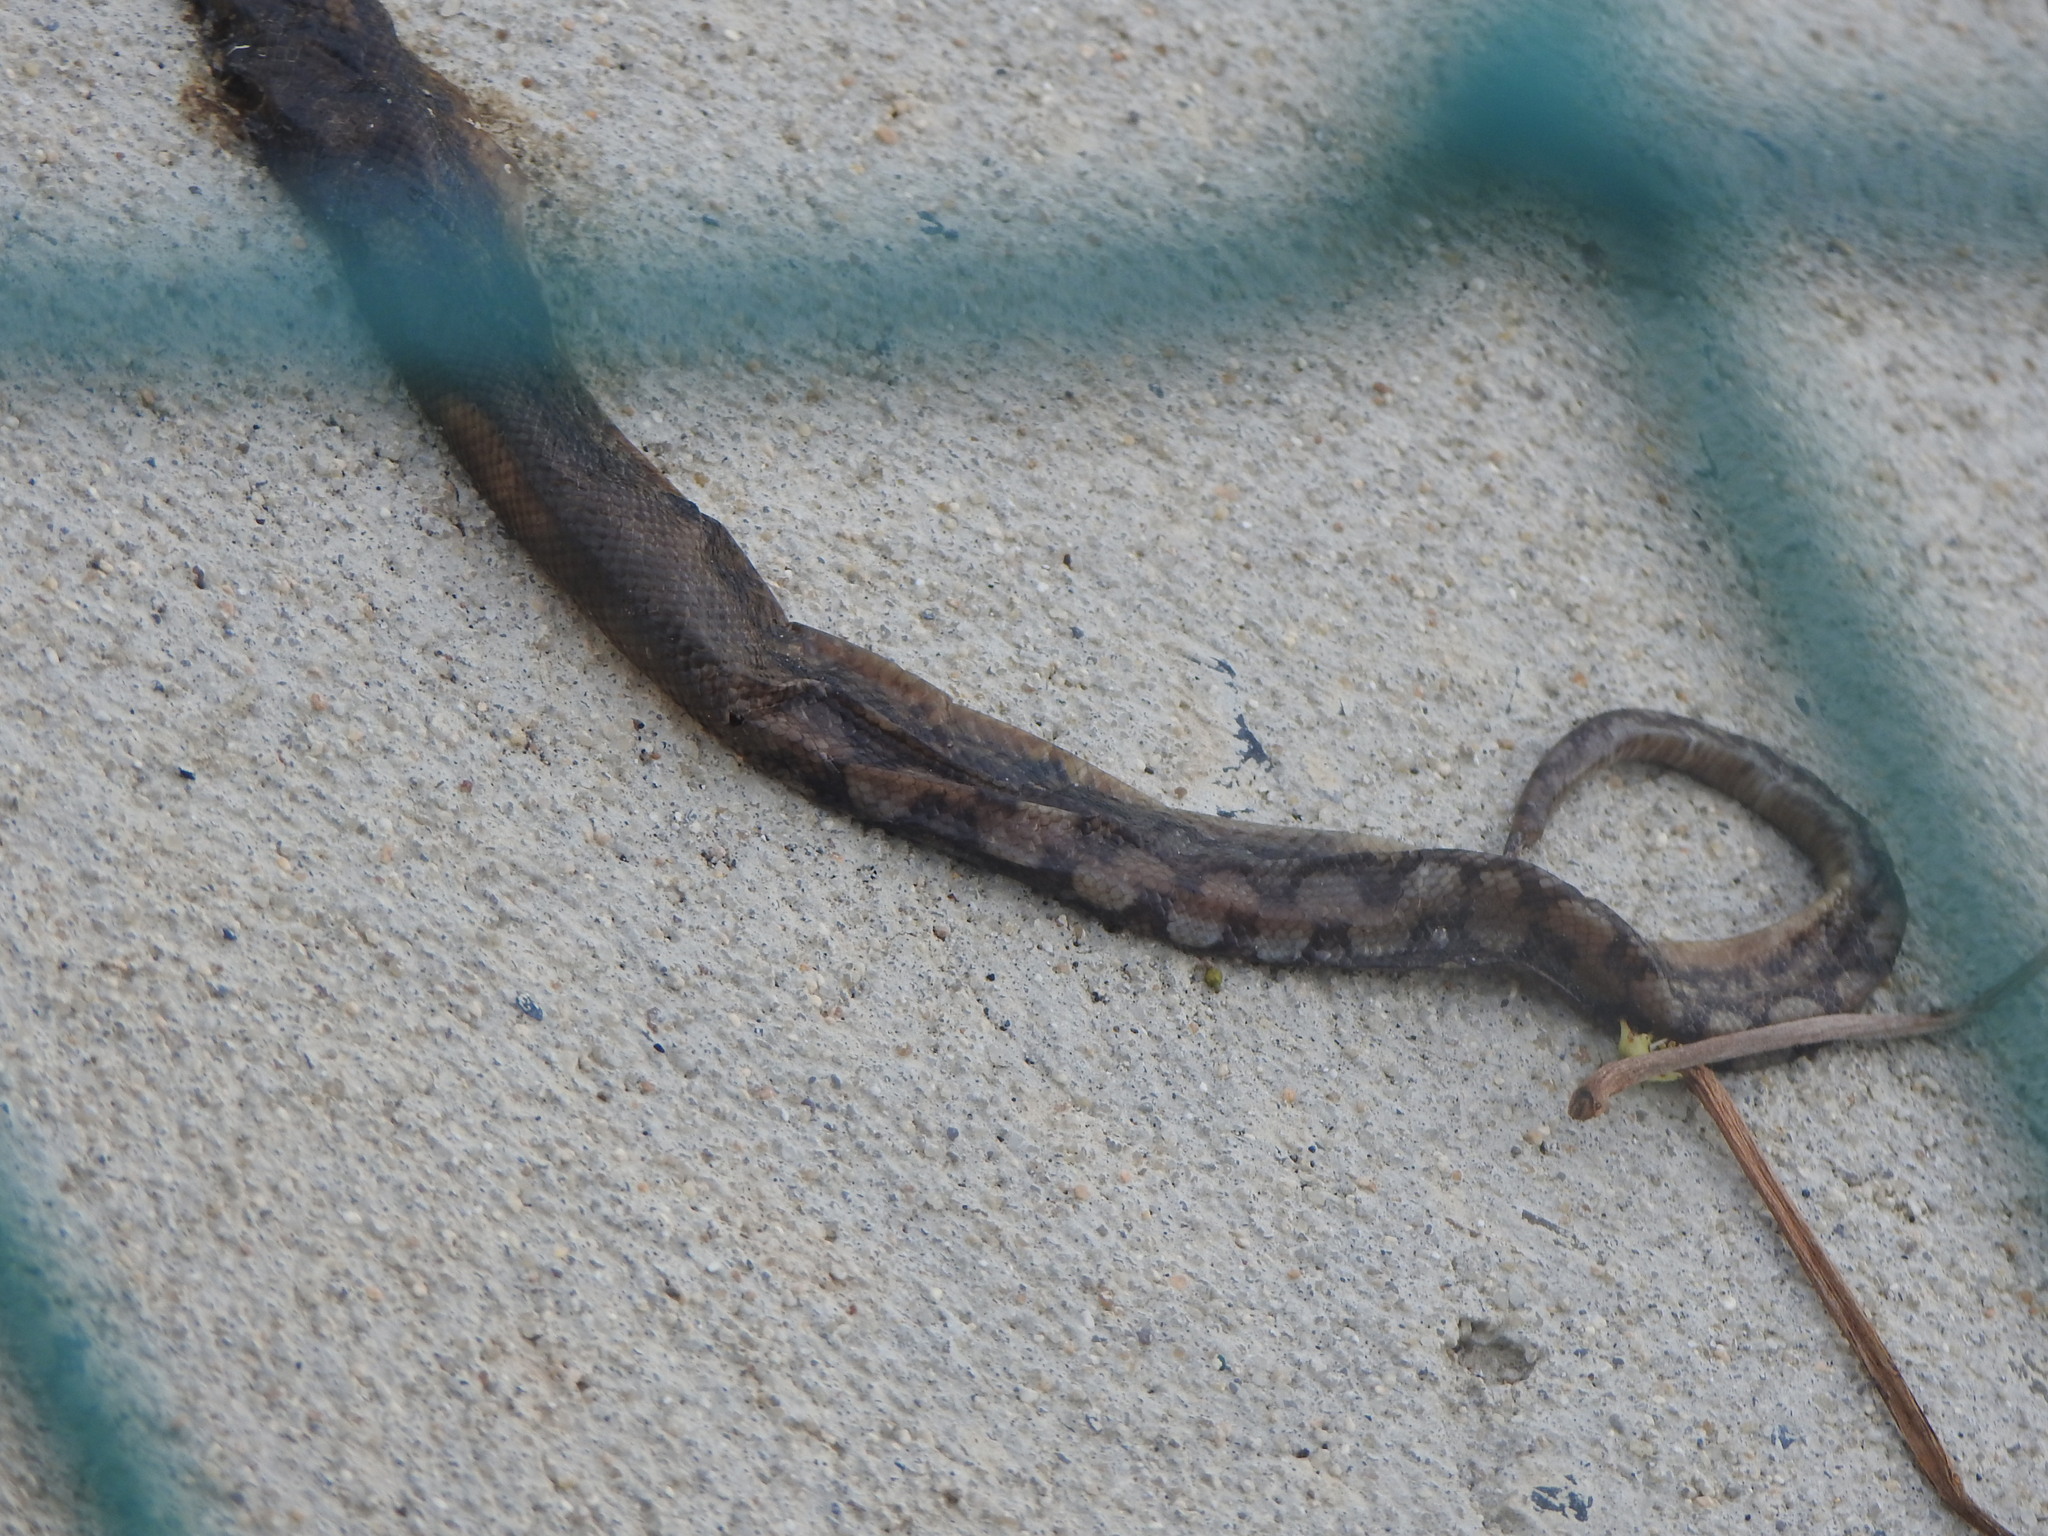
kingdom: Animalia
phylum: Chordata
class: Squamata
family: Boidae
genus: Epicrates
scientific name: Epicrates maurus
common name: Brown rainbow boa
